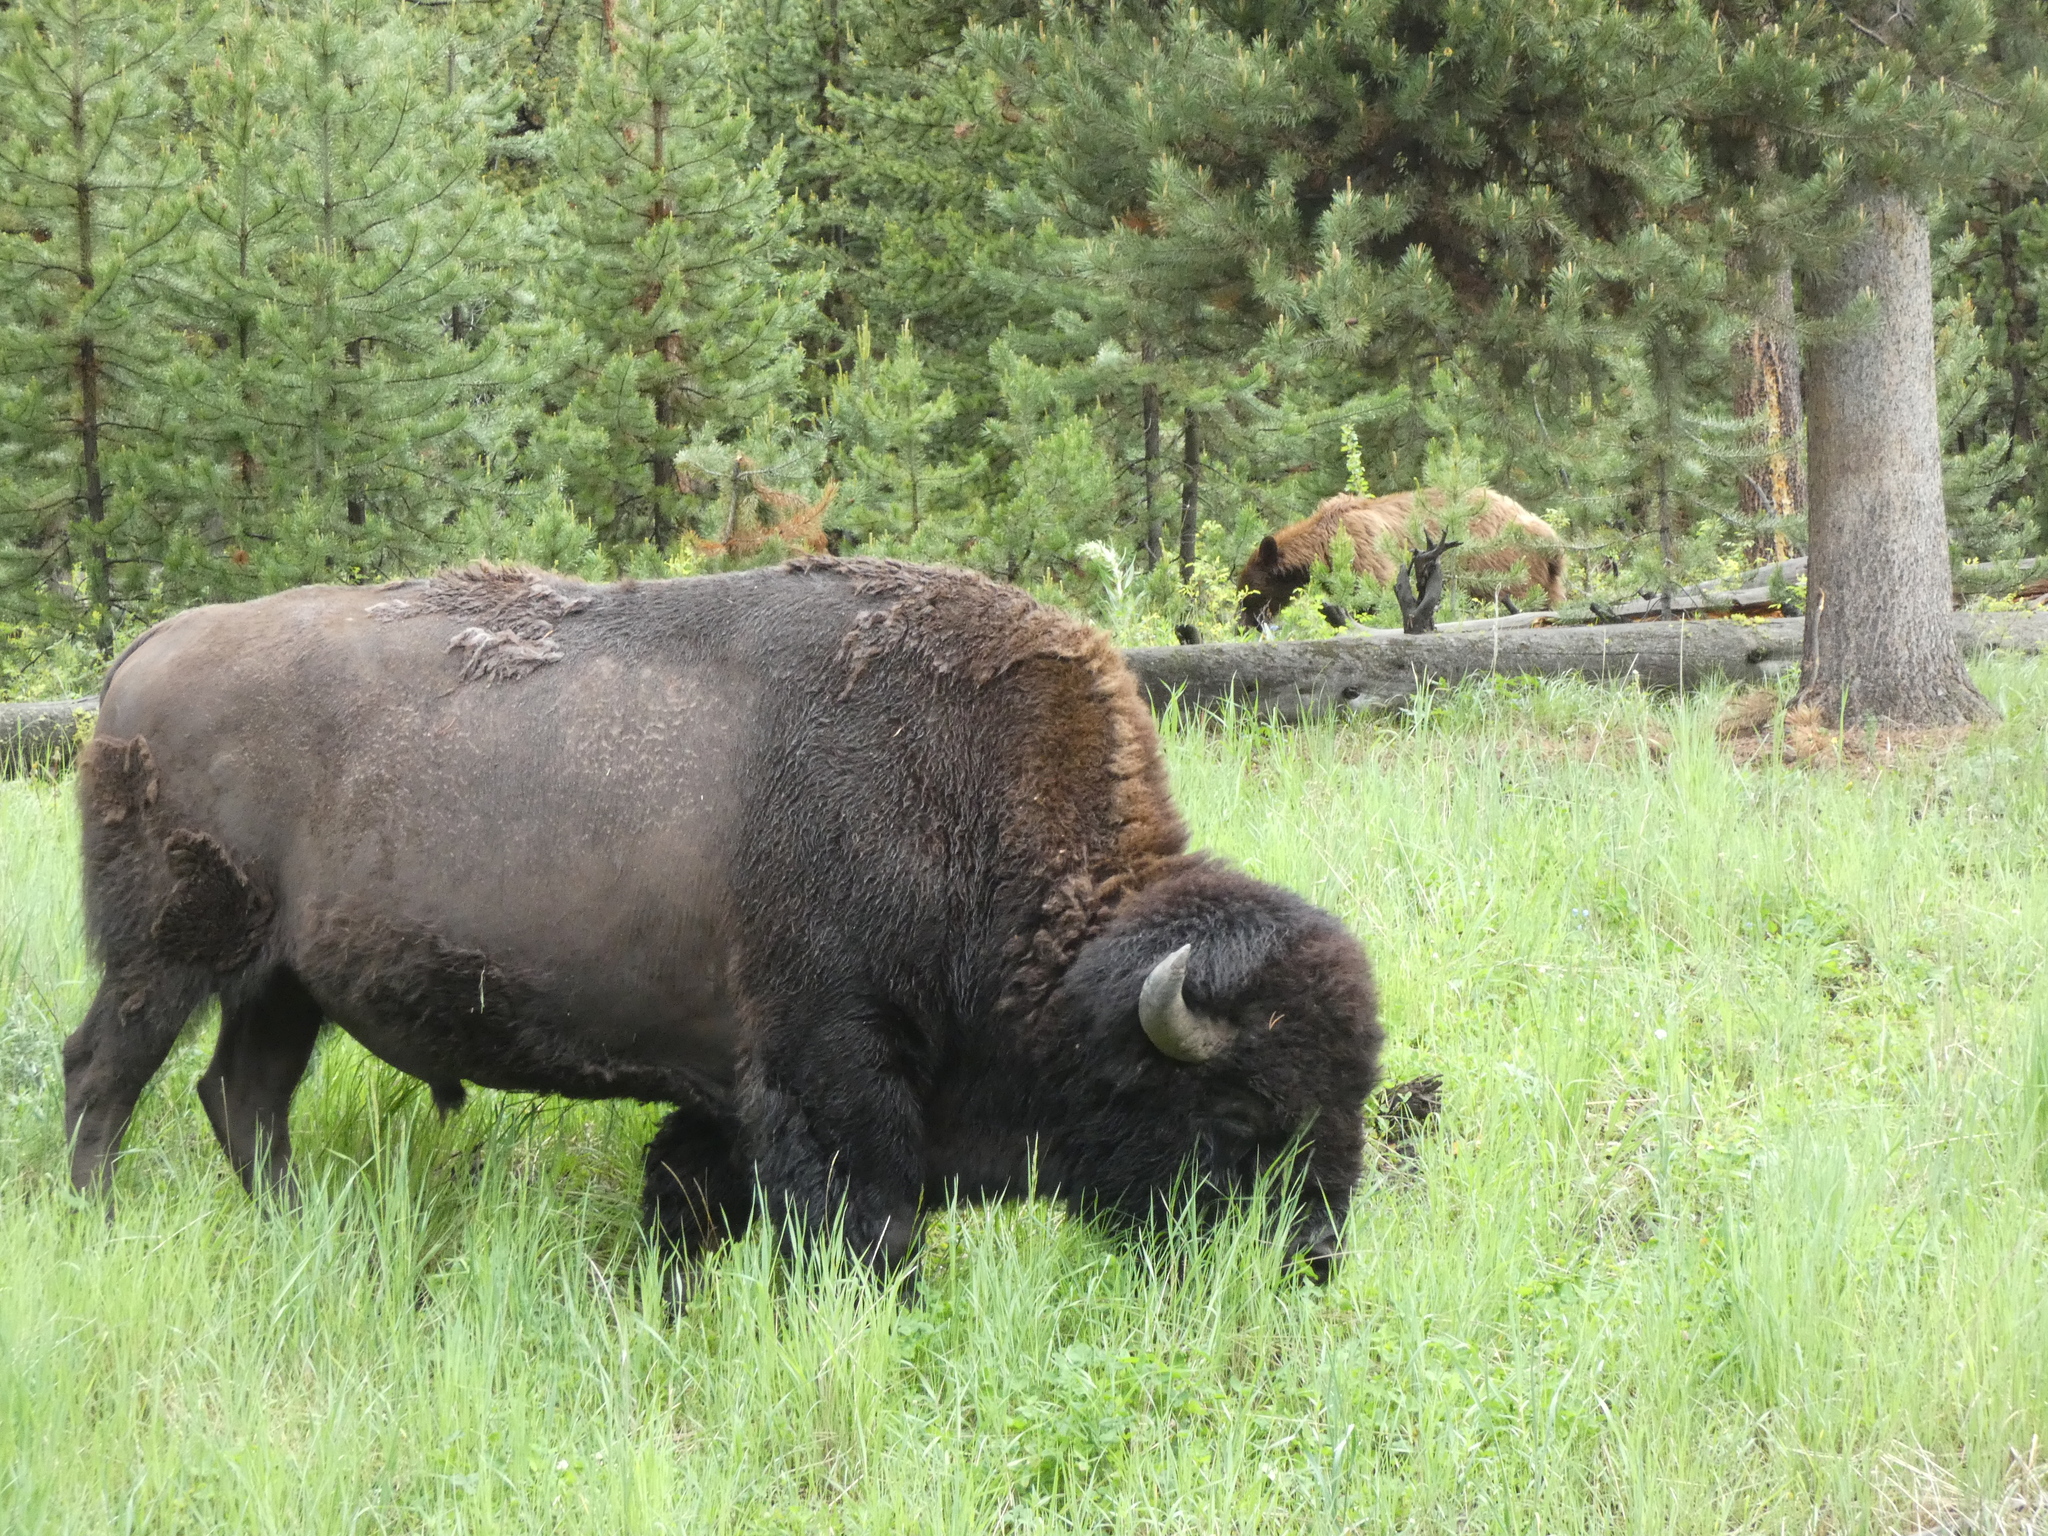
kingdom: Animalia
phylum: Chordata
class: Mammalia
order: Artiodactyla
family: Bovidae
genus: Bison
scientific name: Bison bison
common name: American bison
